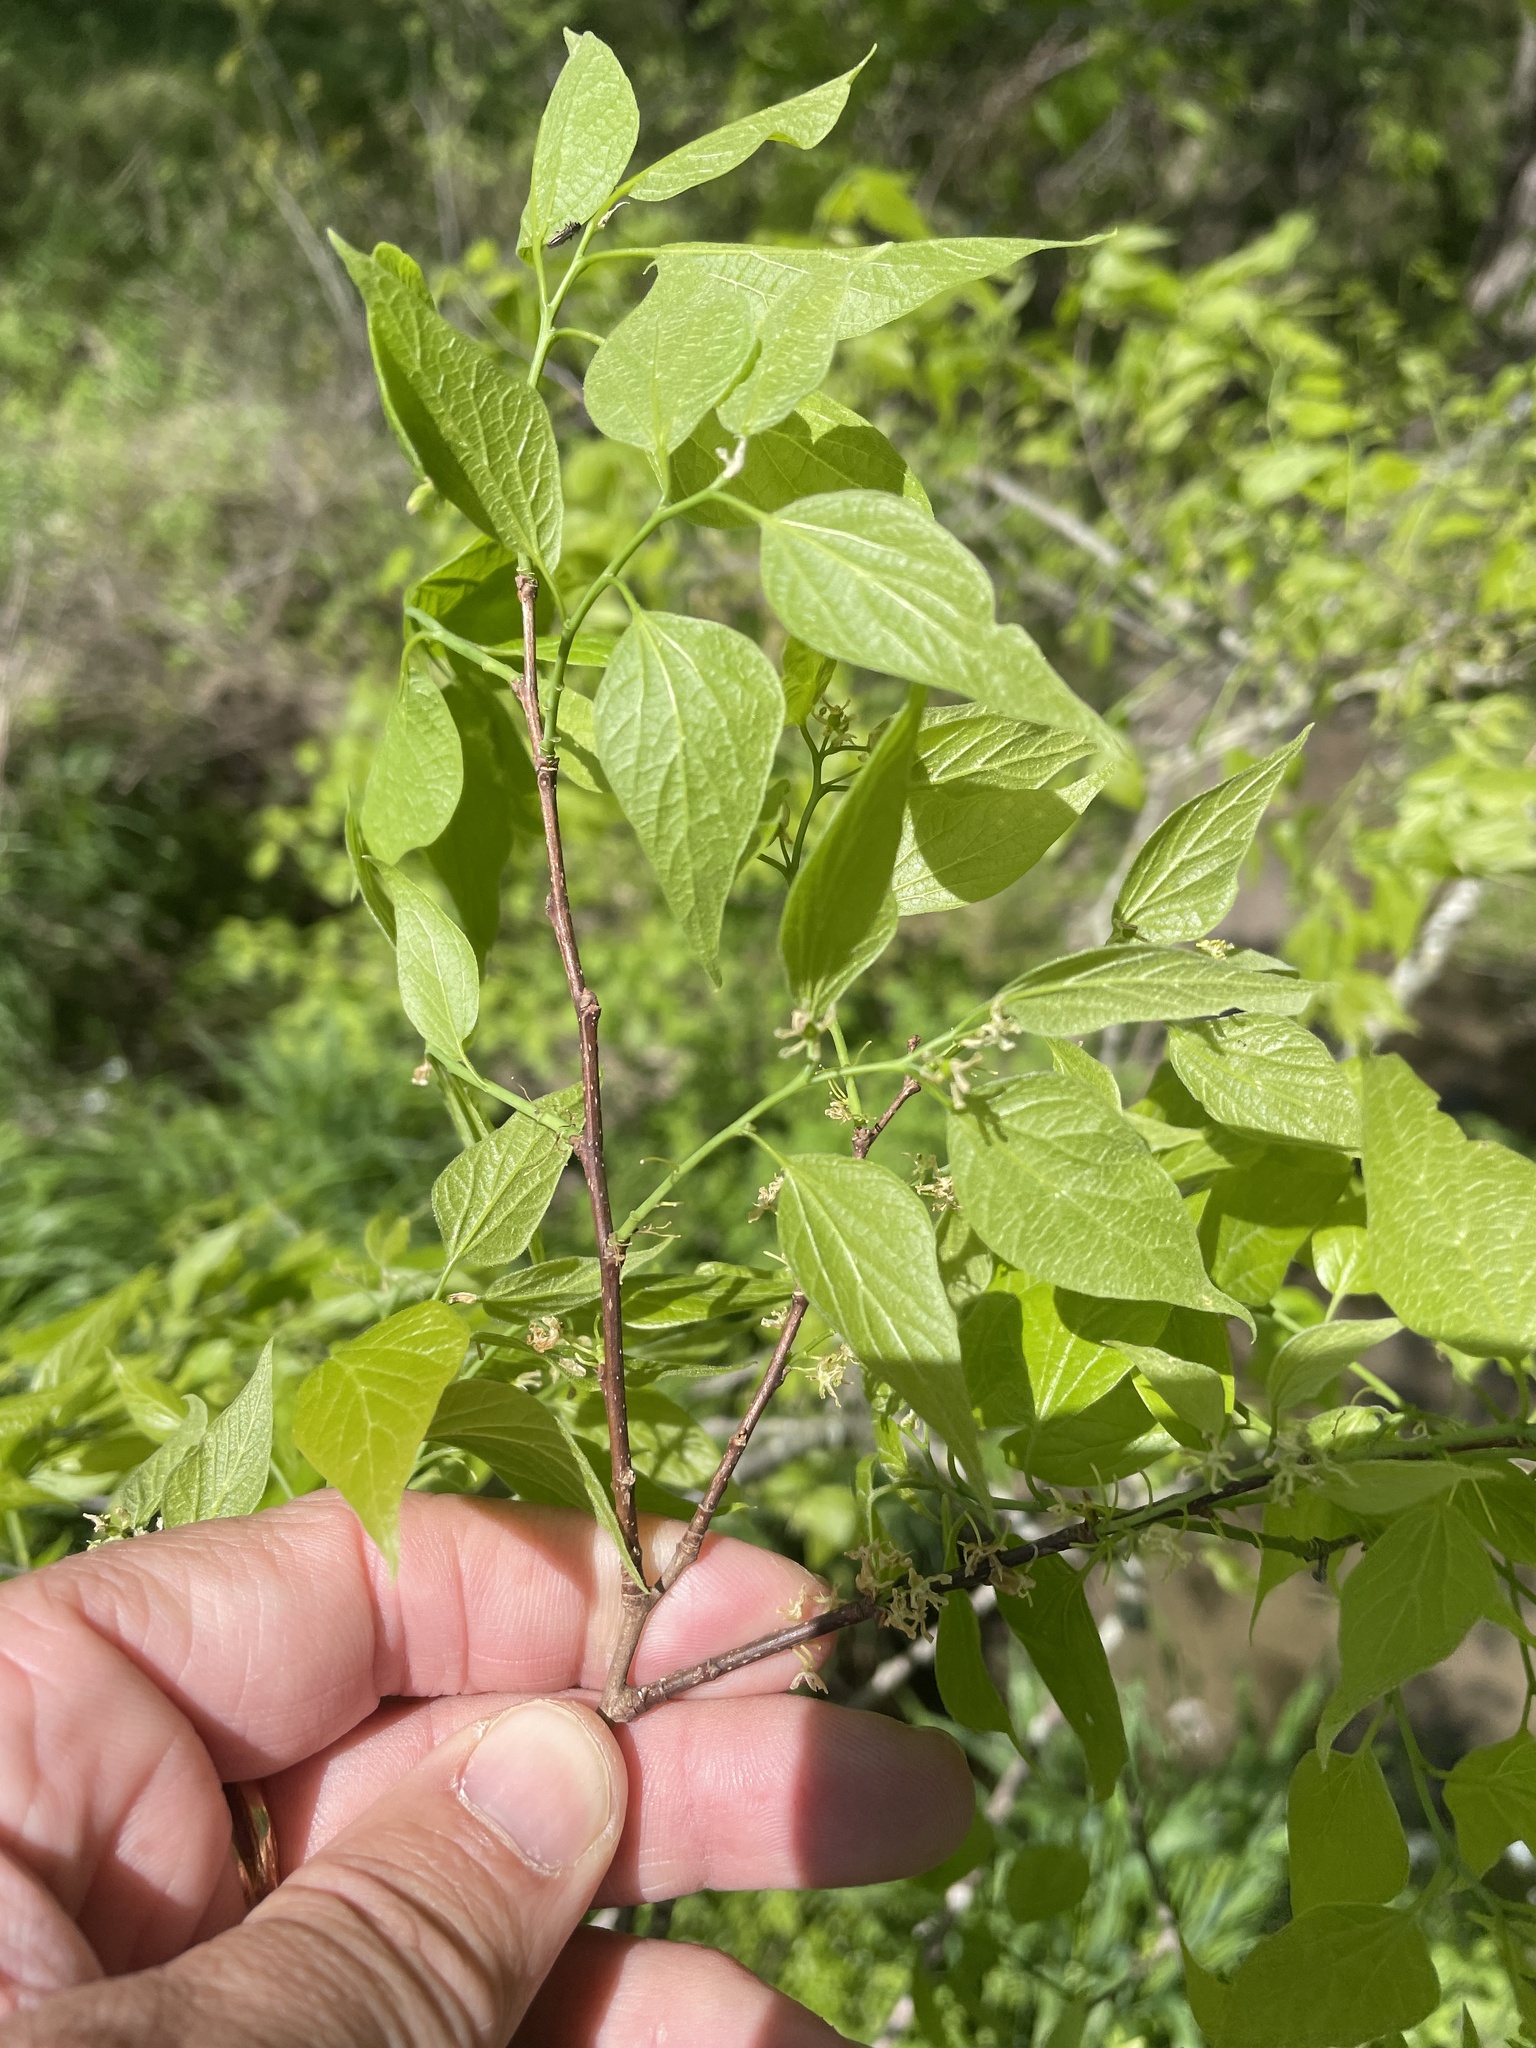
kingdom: Plantae
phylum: Tracheophyta
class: Magnoliopsida
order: Rosales
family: Cannabaceae
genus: Celtis
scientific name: Celtis laevigata
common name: Sugarberry
